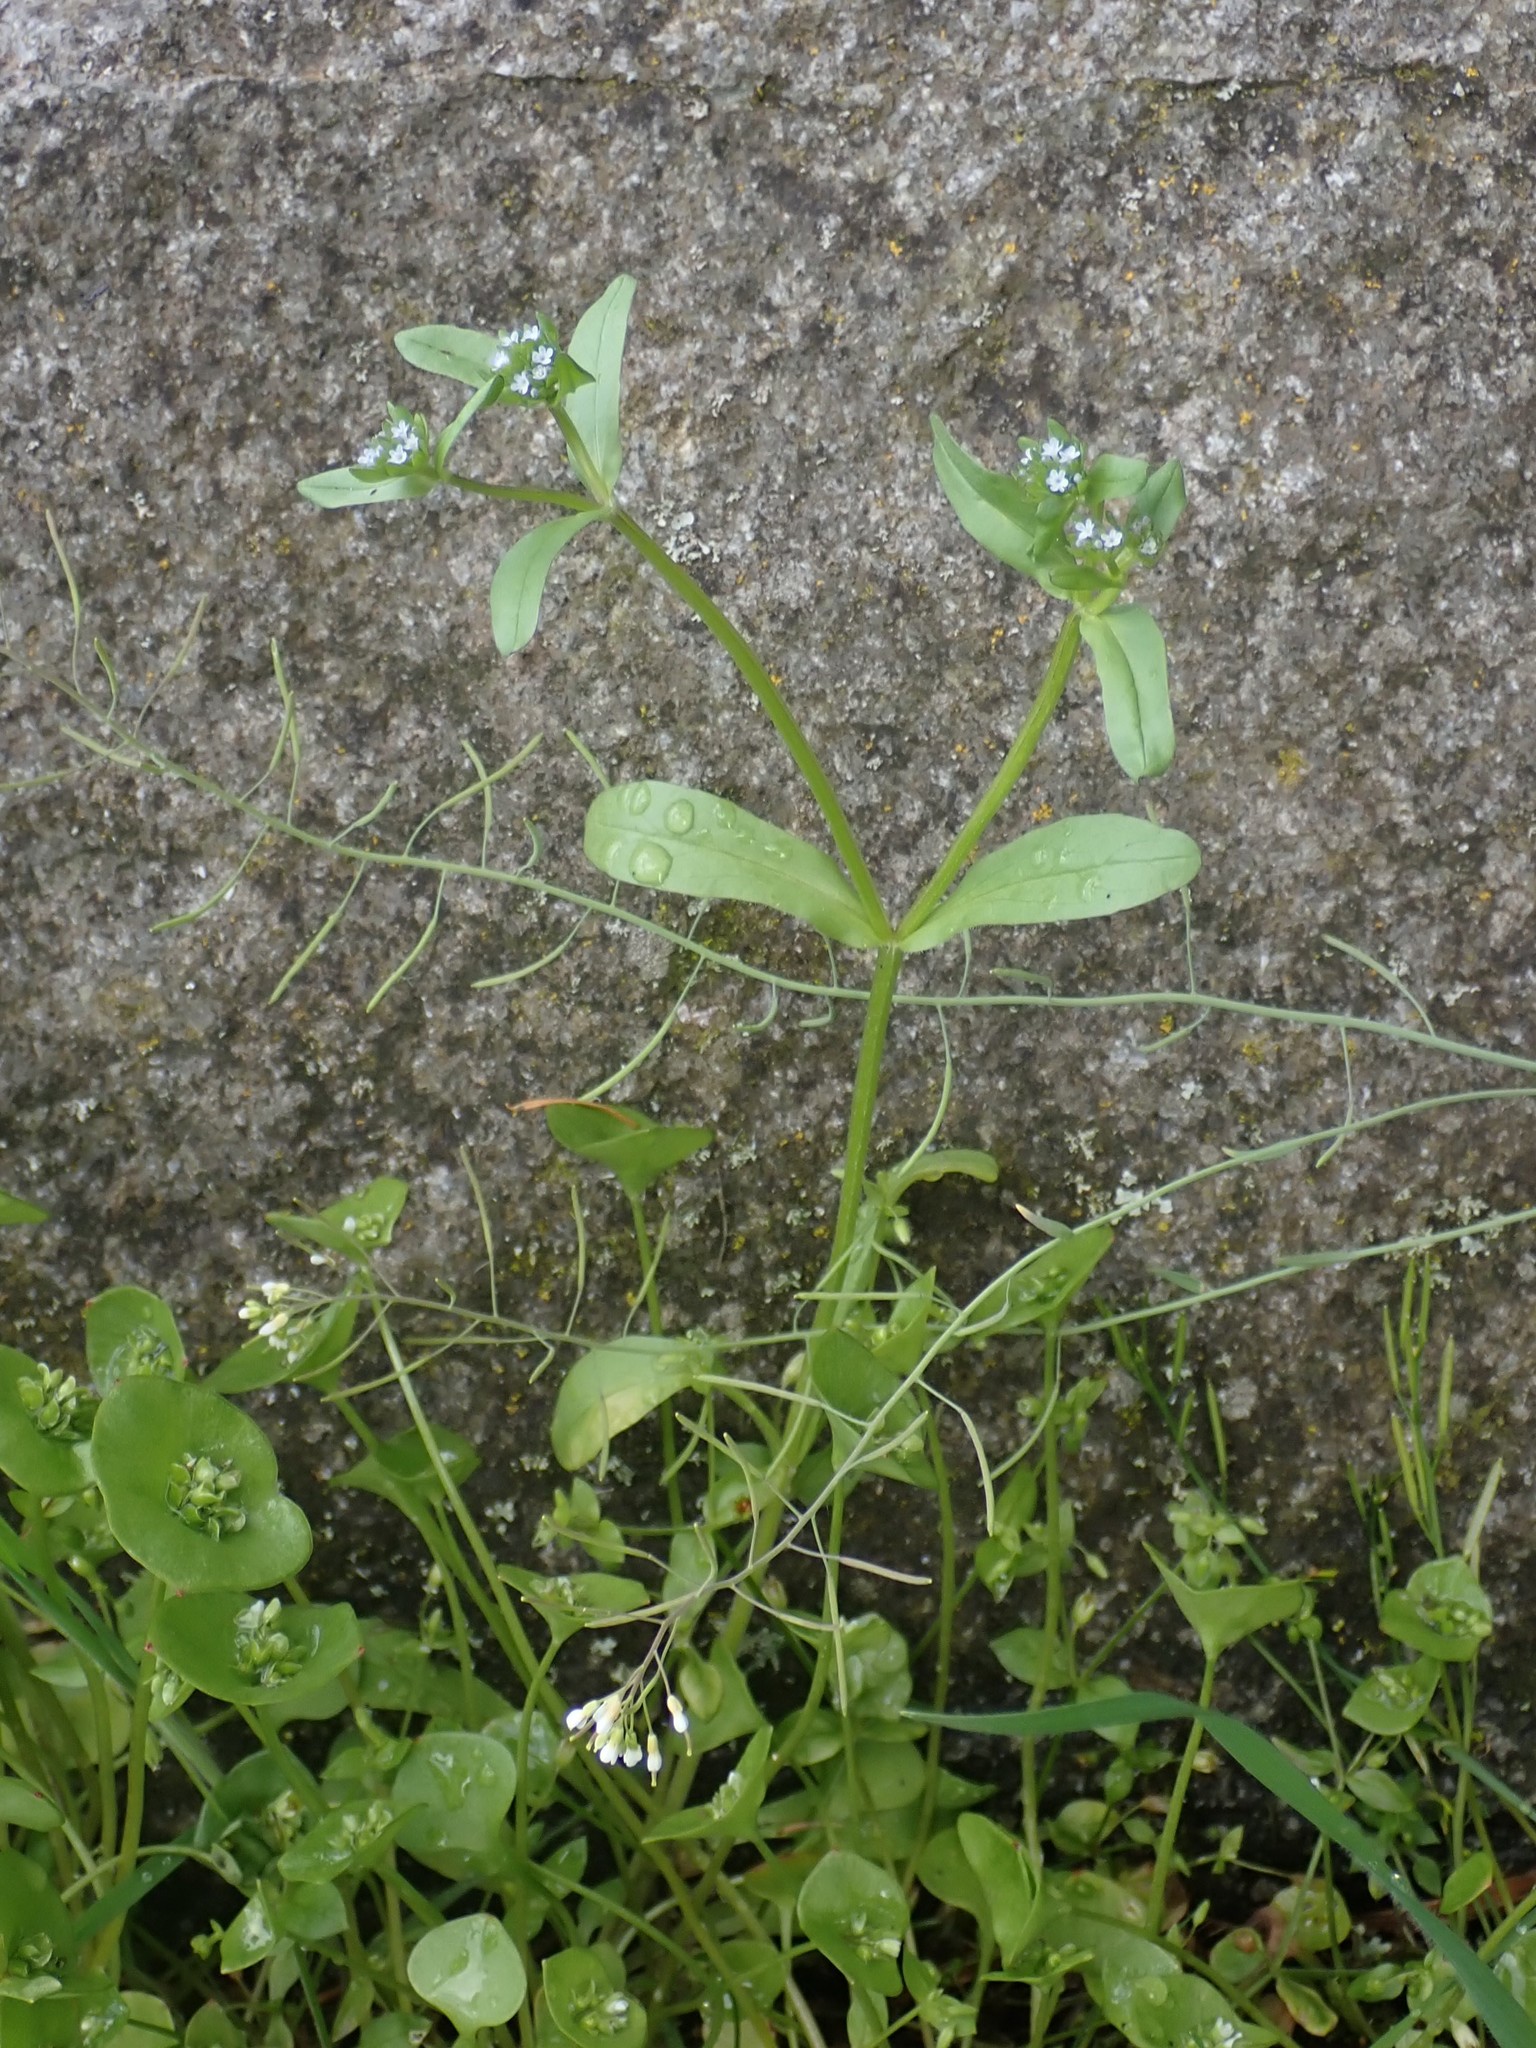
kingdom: Plantae
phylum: Tracheophyta
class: Magnoliopsida
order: Dipsacales
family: Caprifoliaceae
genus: Valerianella
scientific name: Valerianella locusta
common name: Common cornsalad
